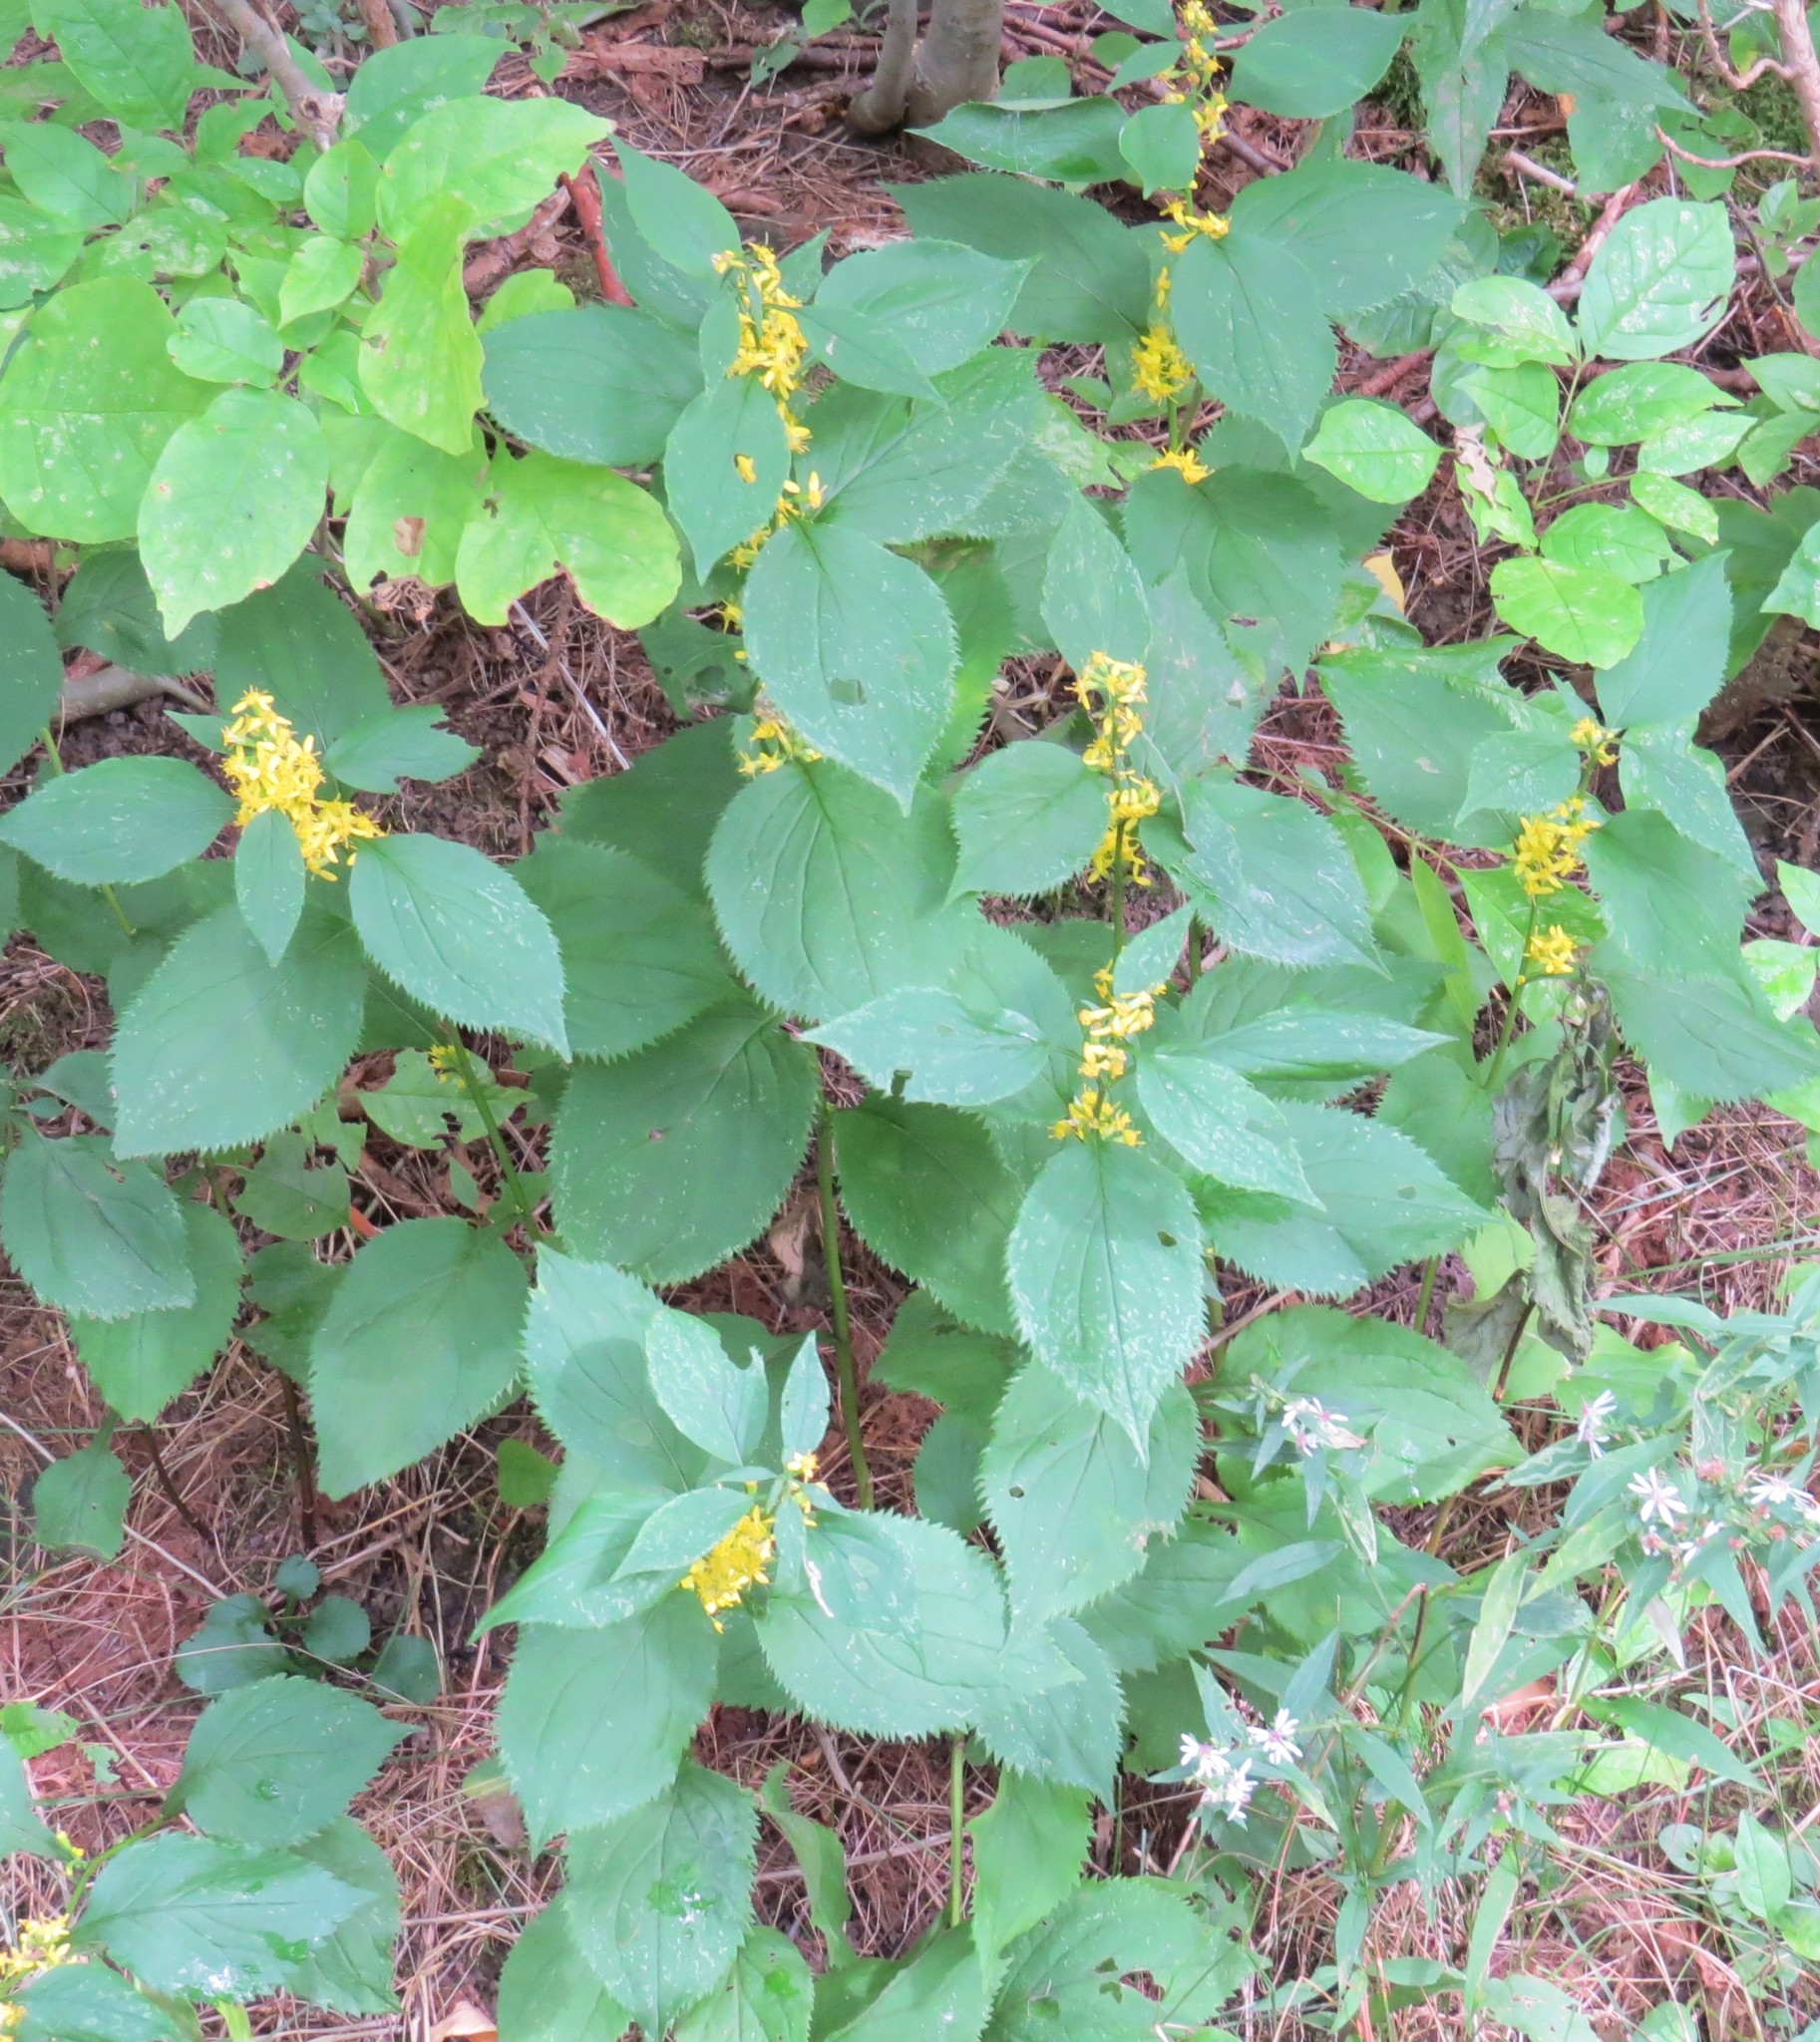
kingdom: Plantae
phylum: Tracheophyta
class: Magnoliopsida
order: Asterales
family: Asteraceae
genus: Solidago
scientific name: Solidago flexicaulis
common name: Zig-zag goldenrod
